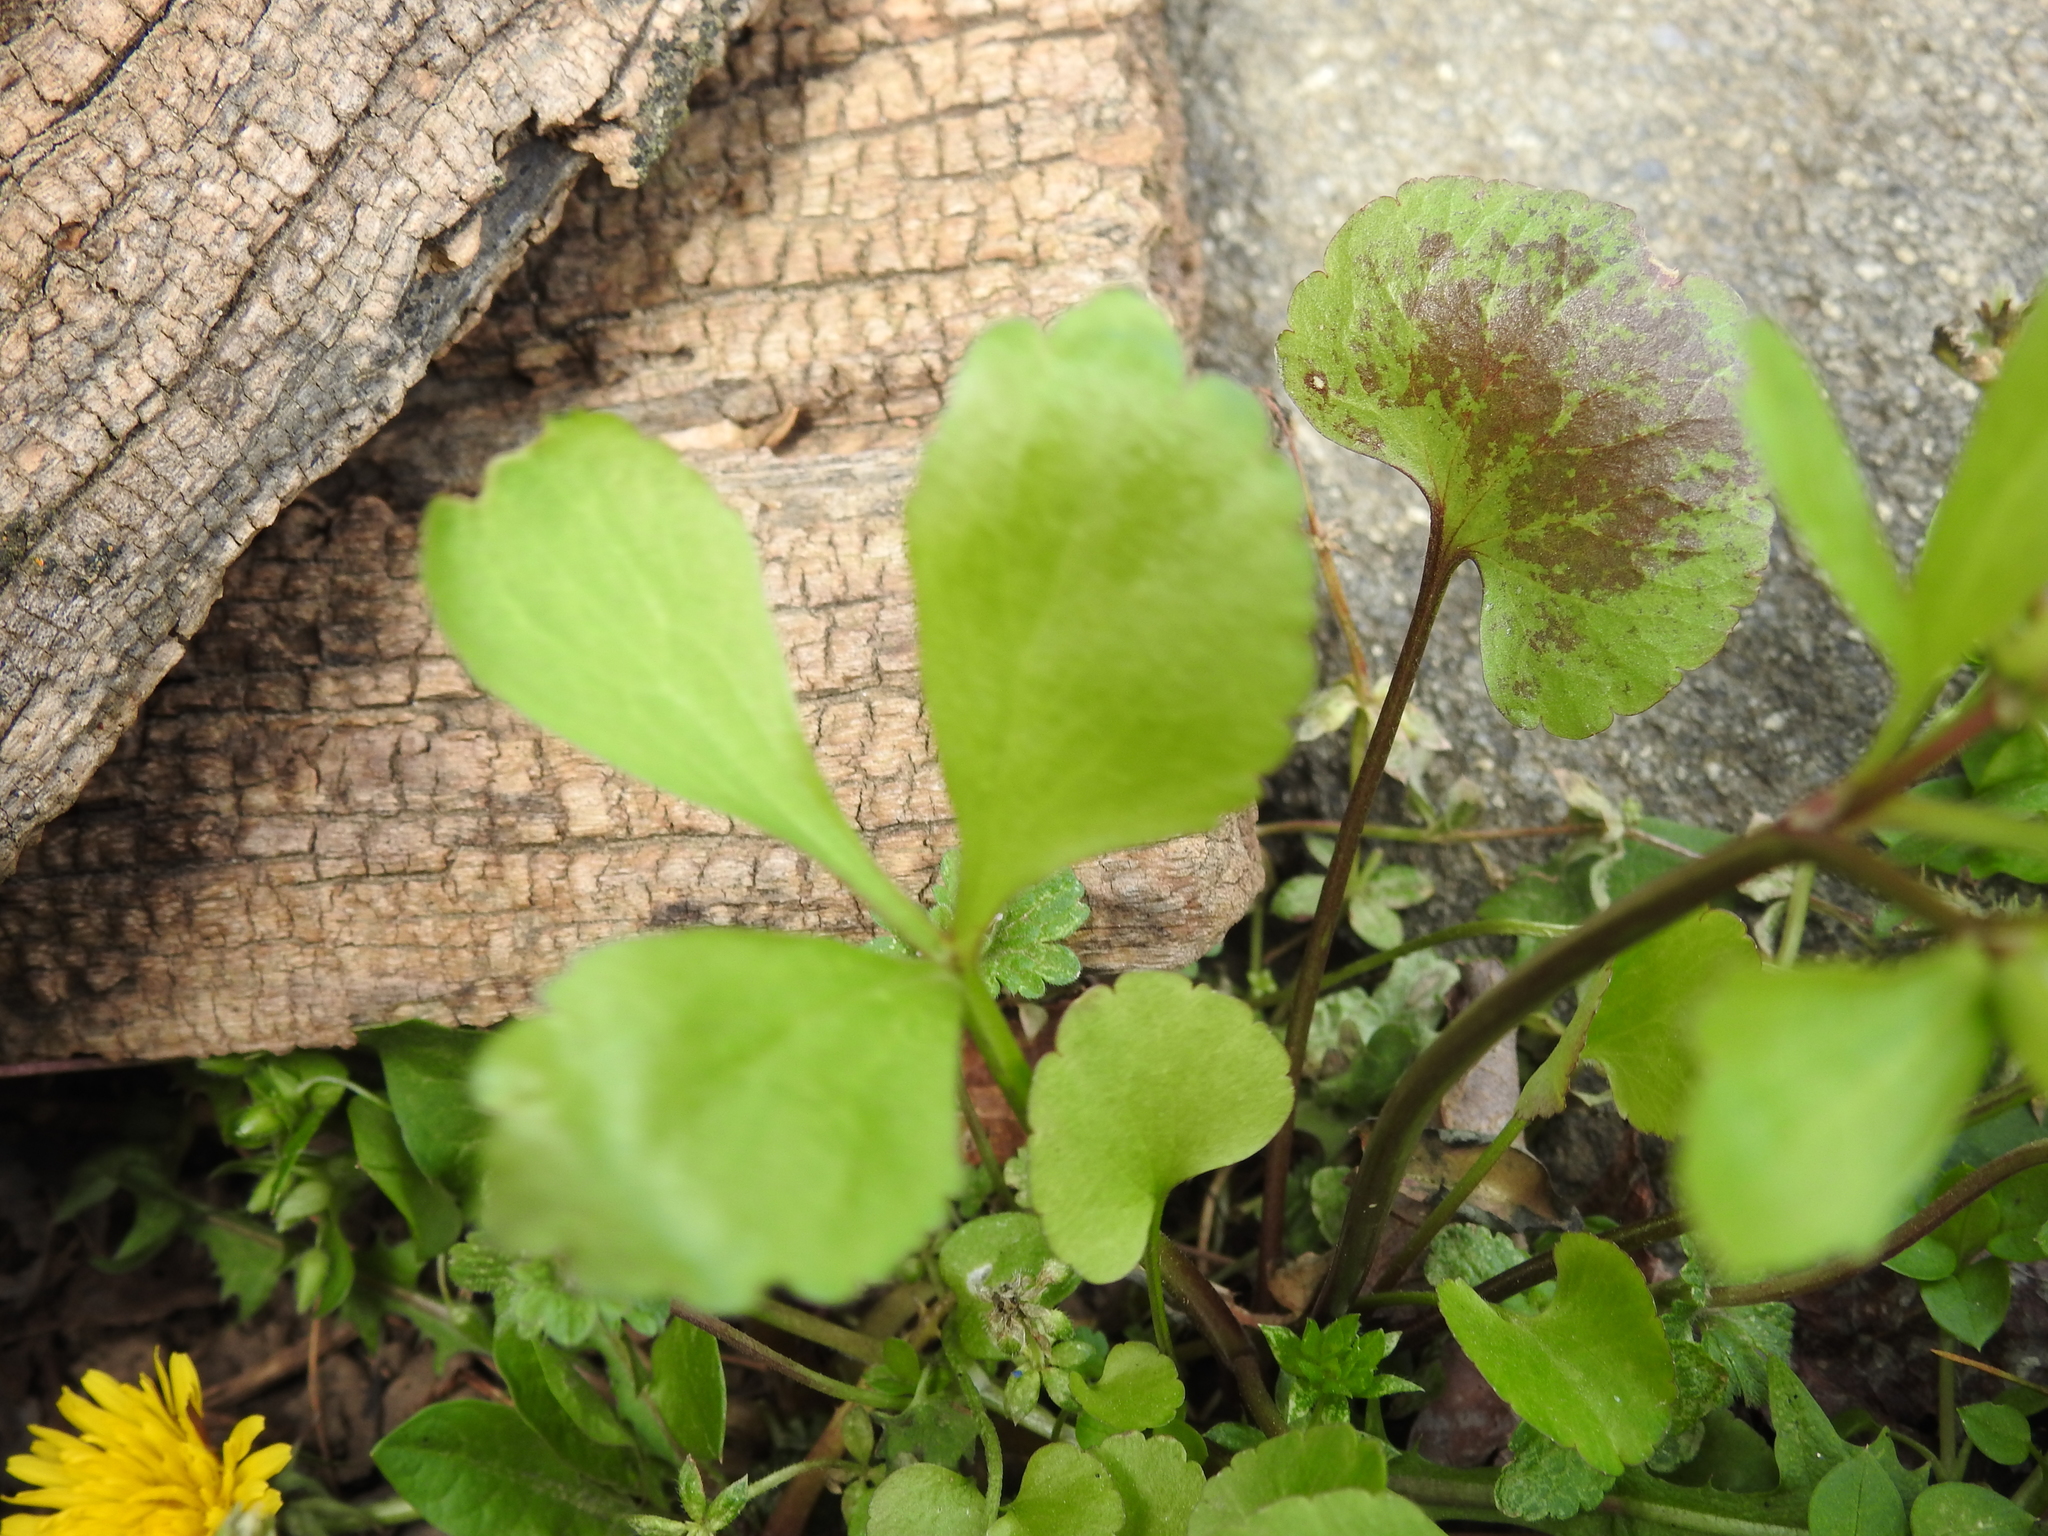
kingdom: Plantae
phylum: Tracheophyta
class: Magnoliopsida
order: Ranunculales
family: Ranunculaceae
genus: Ranunculus
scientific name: Ranunculus abortivus
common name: Early wood buttercup
